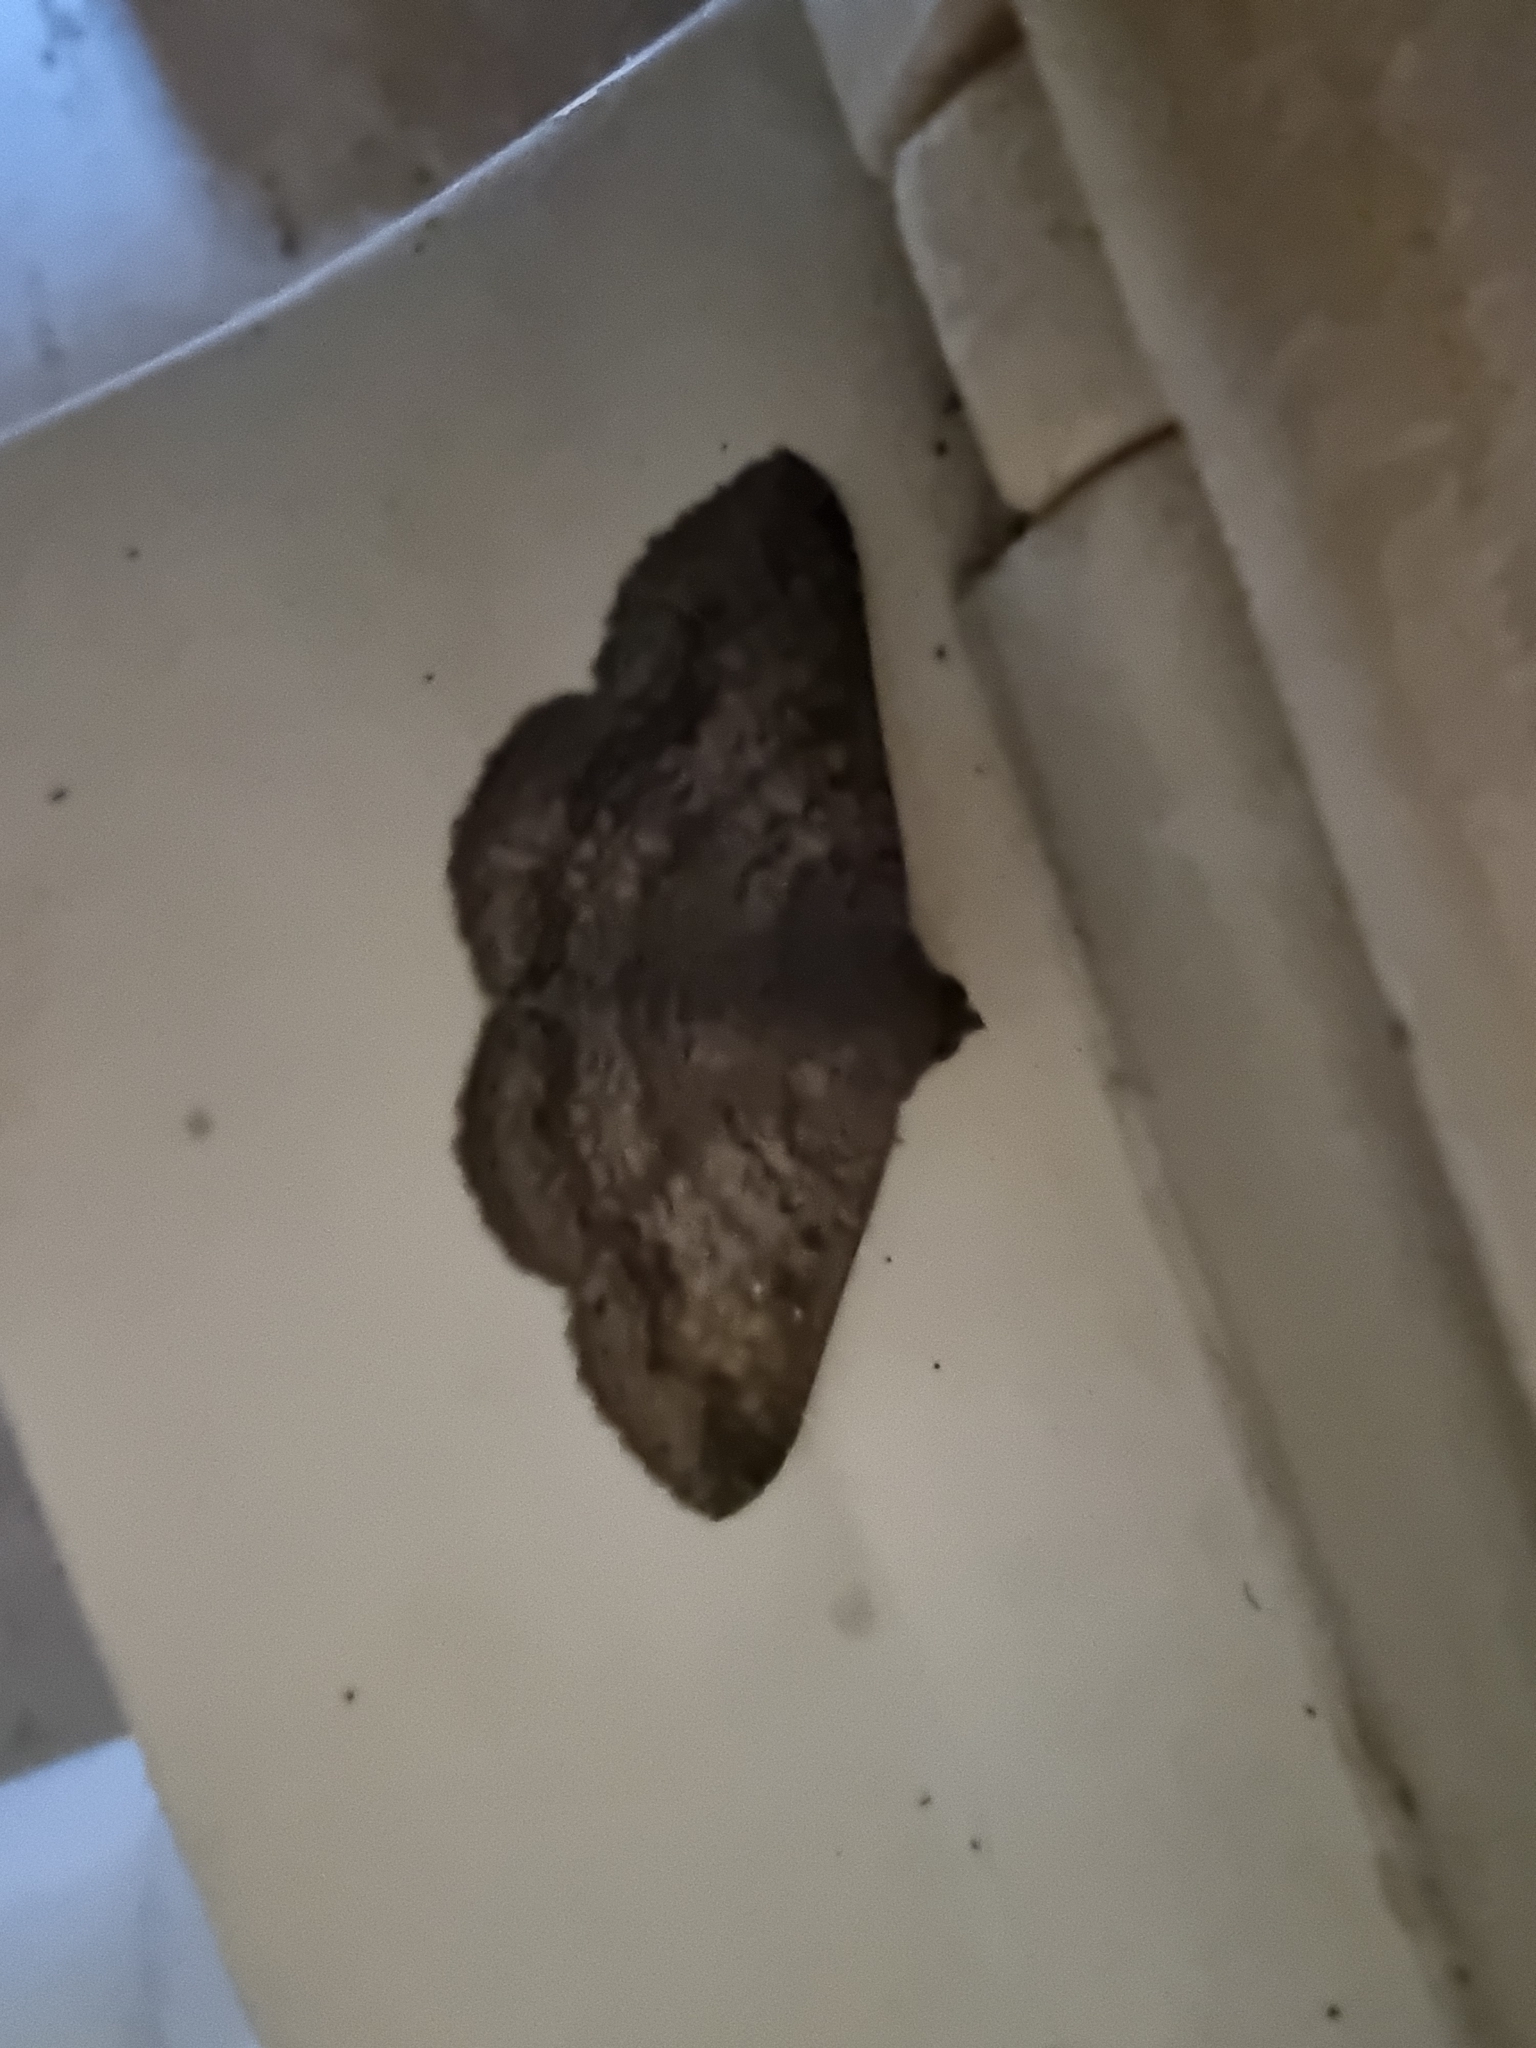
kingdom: Animalia
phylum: Arthropoda
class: Insecta
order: Lepidoptera
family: Erebidae
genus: Ericeia
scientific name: Ericeia sobria
